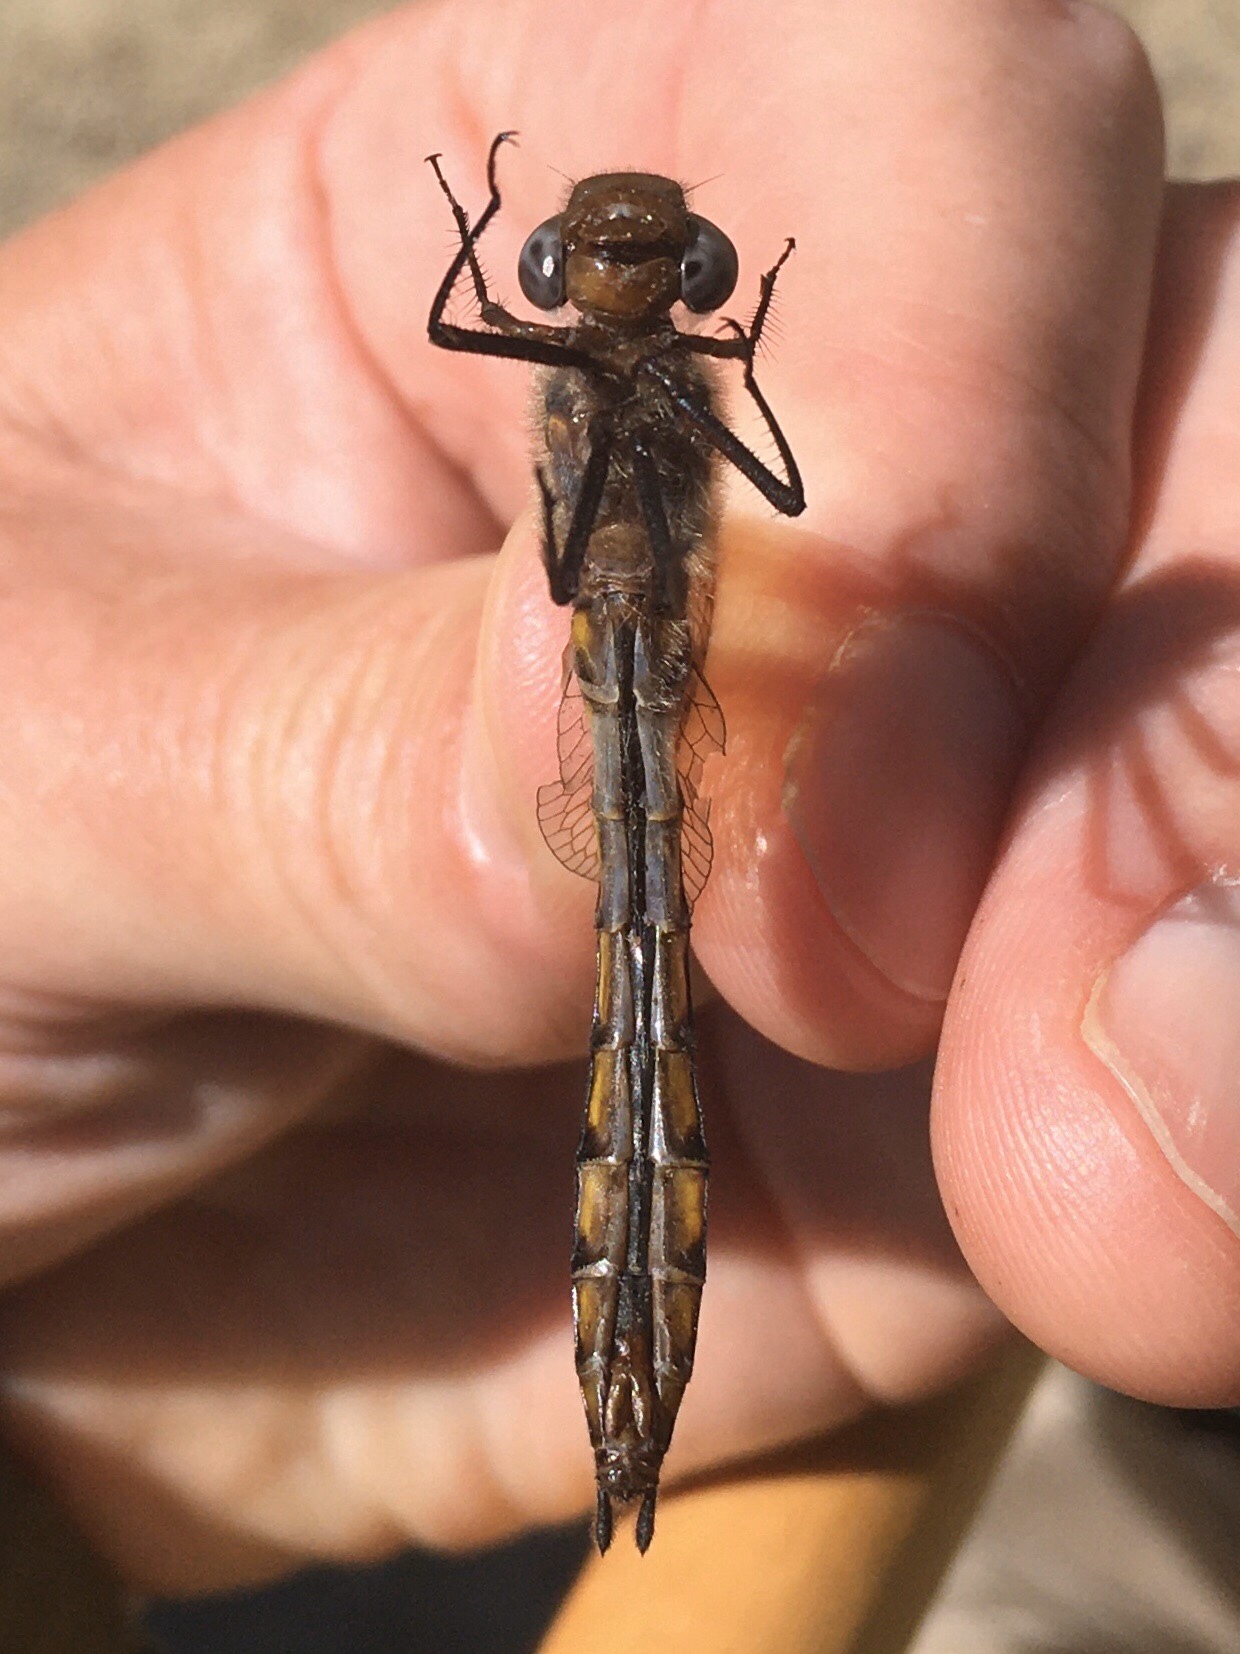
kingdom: Animalia
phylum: Arthropoda
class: Insecta
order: Odonata
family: Corduliidae
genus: Epitheca
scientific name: Epitheca canis
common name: Beaverpond baskettail
